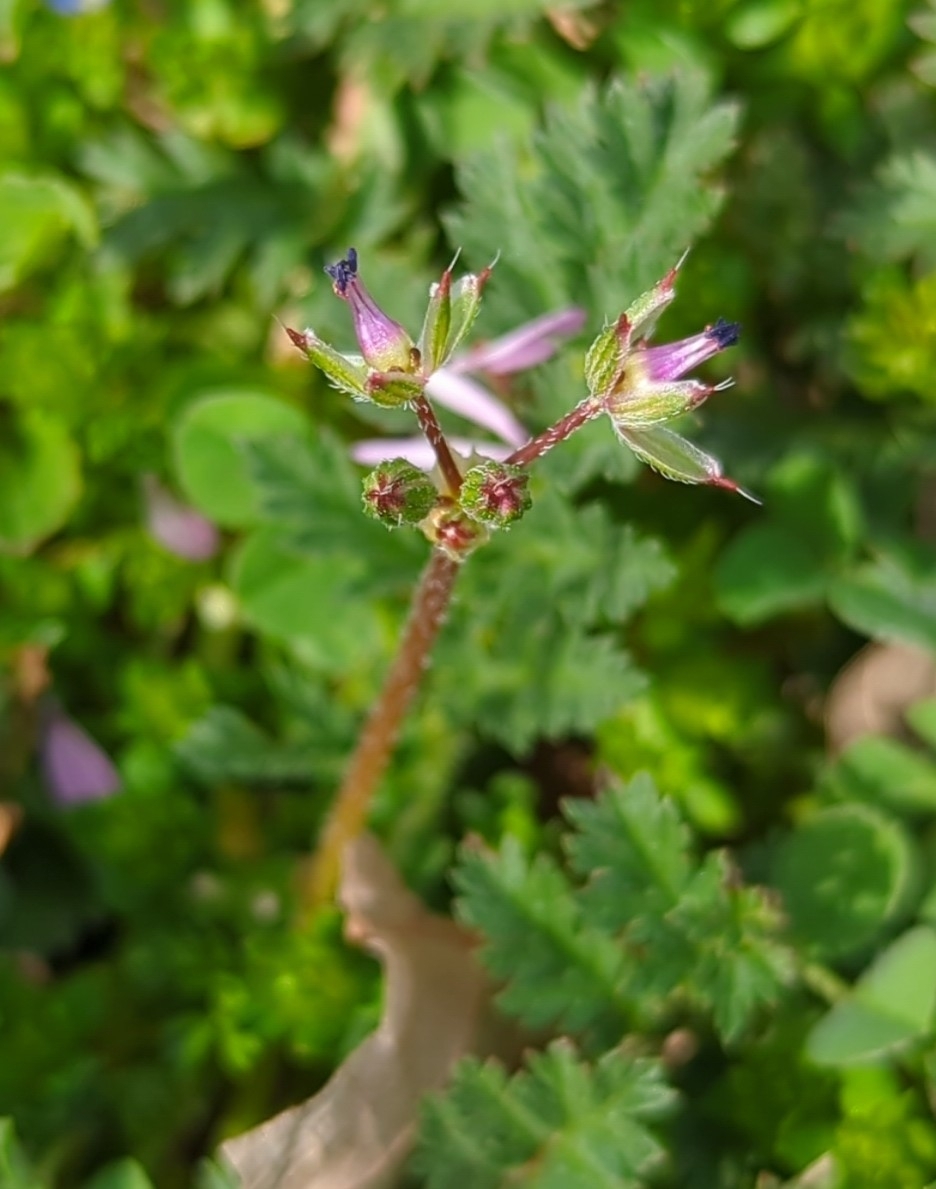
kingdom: Plantae
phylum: Tracheophyta
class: Magnoliopsida
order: Geraniales
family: Geraniaceae
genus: Erodium
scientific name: Erodium cicutarium
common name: Common stork's-bill
